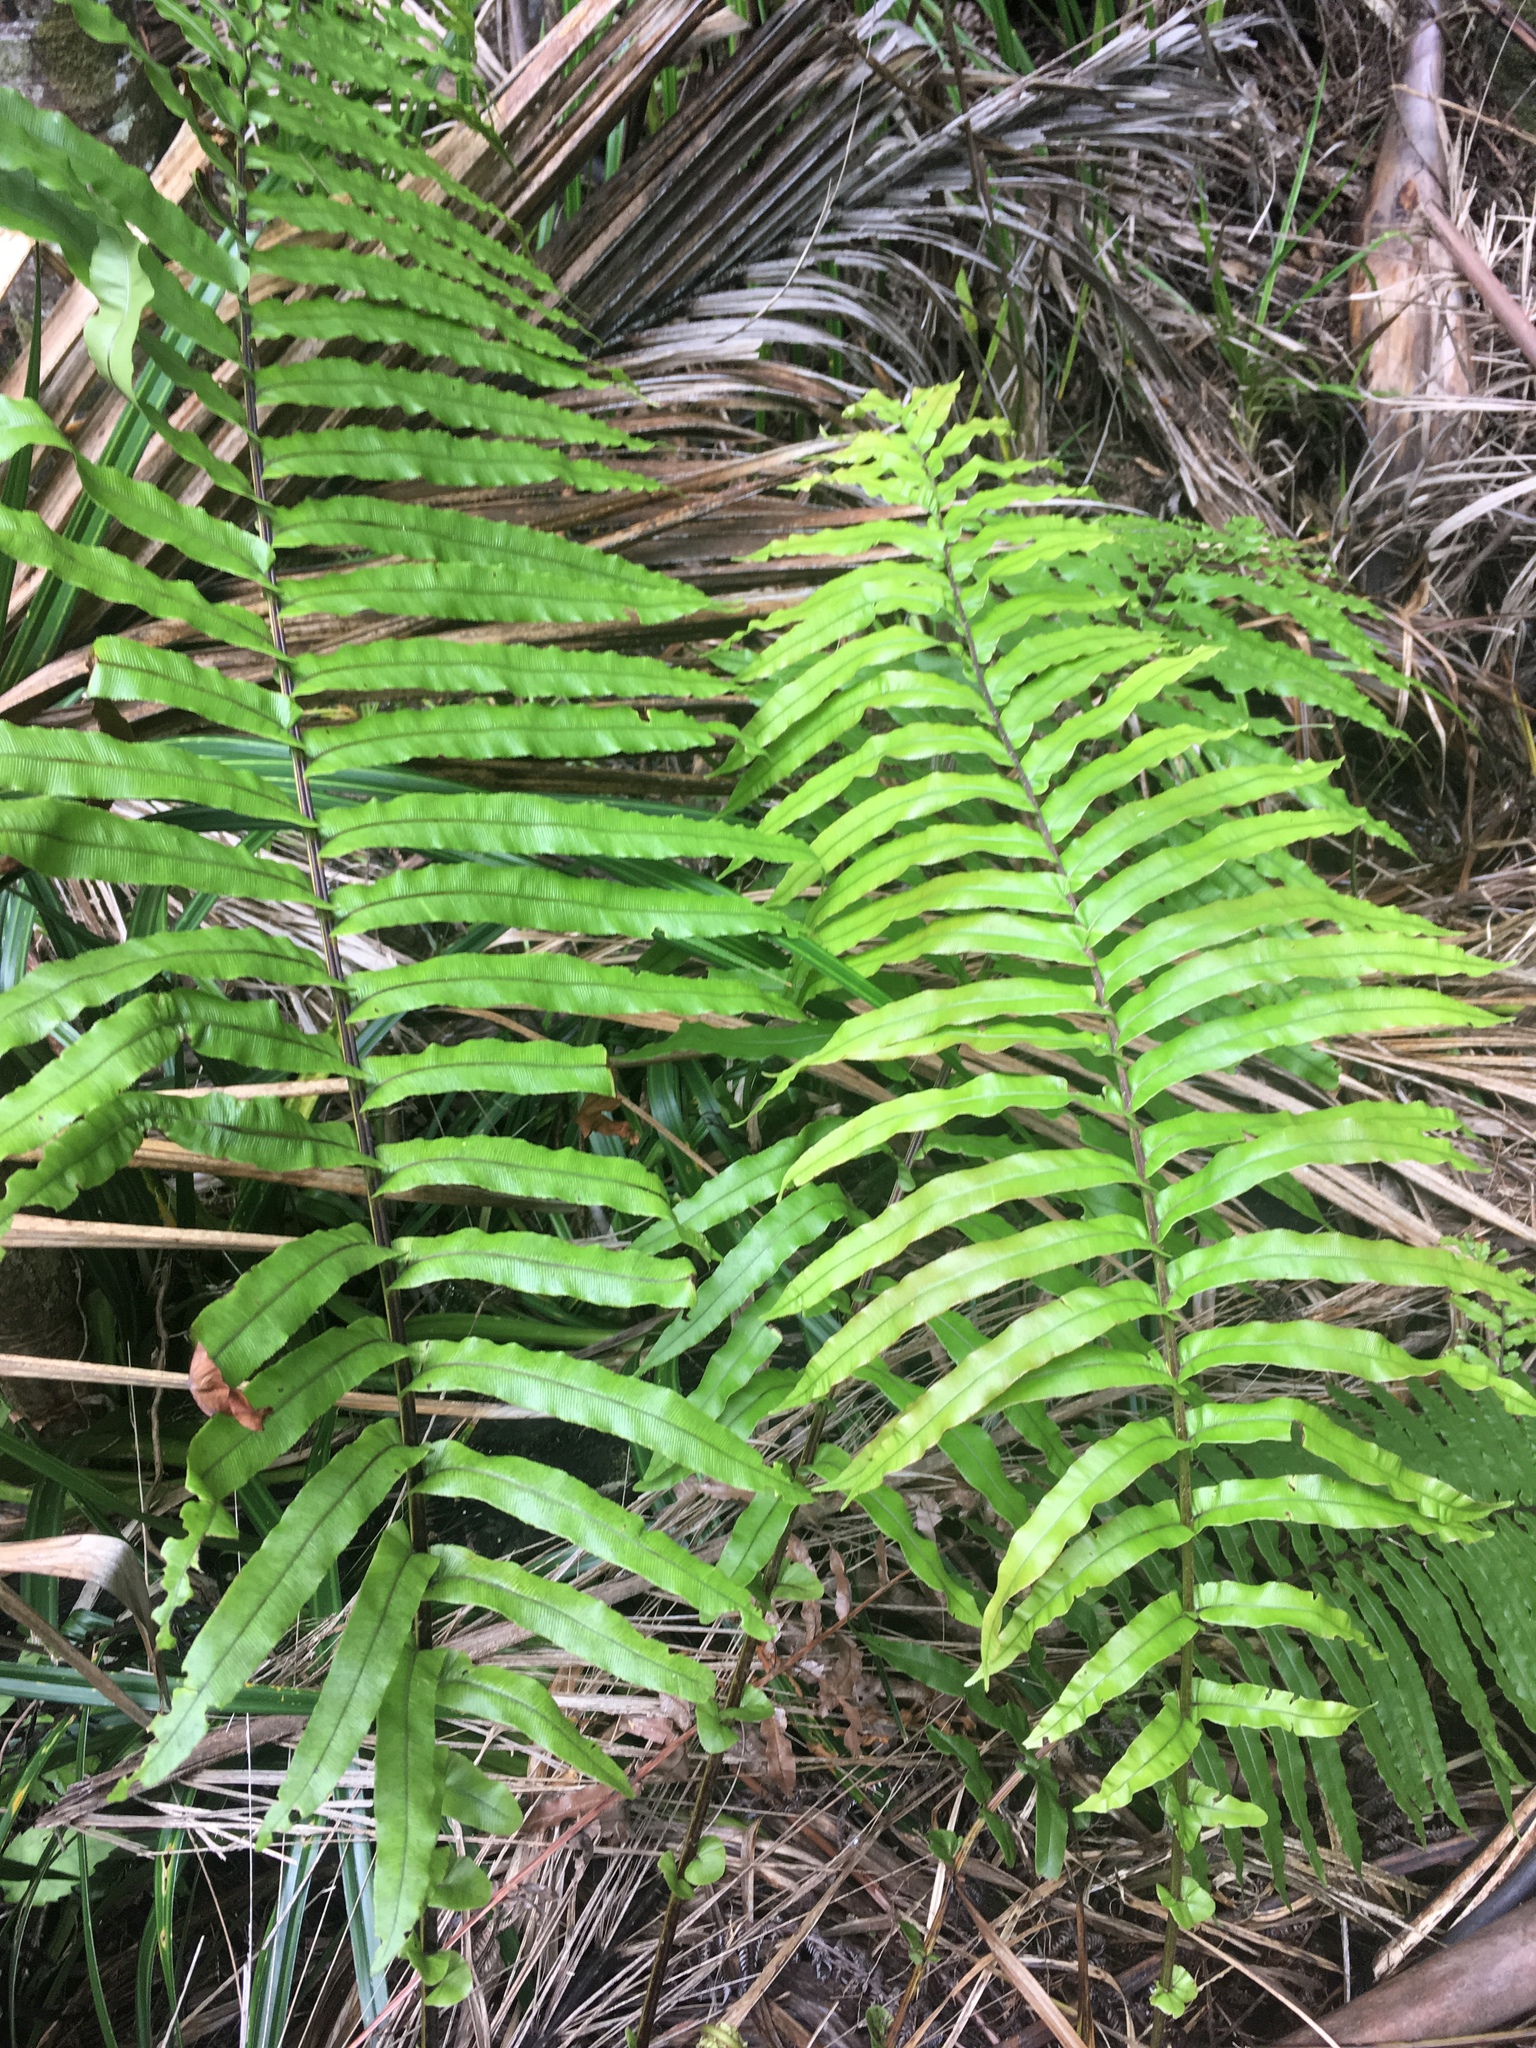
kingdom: Plantae
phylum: Tracheophyta
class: Polypodiopsida
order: Polypodiales
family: Blechnaceae
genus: Parablechnum
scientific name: Parablechnum novae-zelandiae
